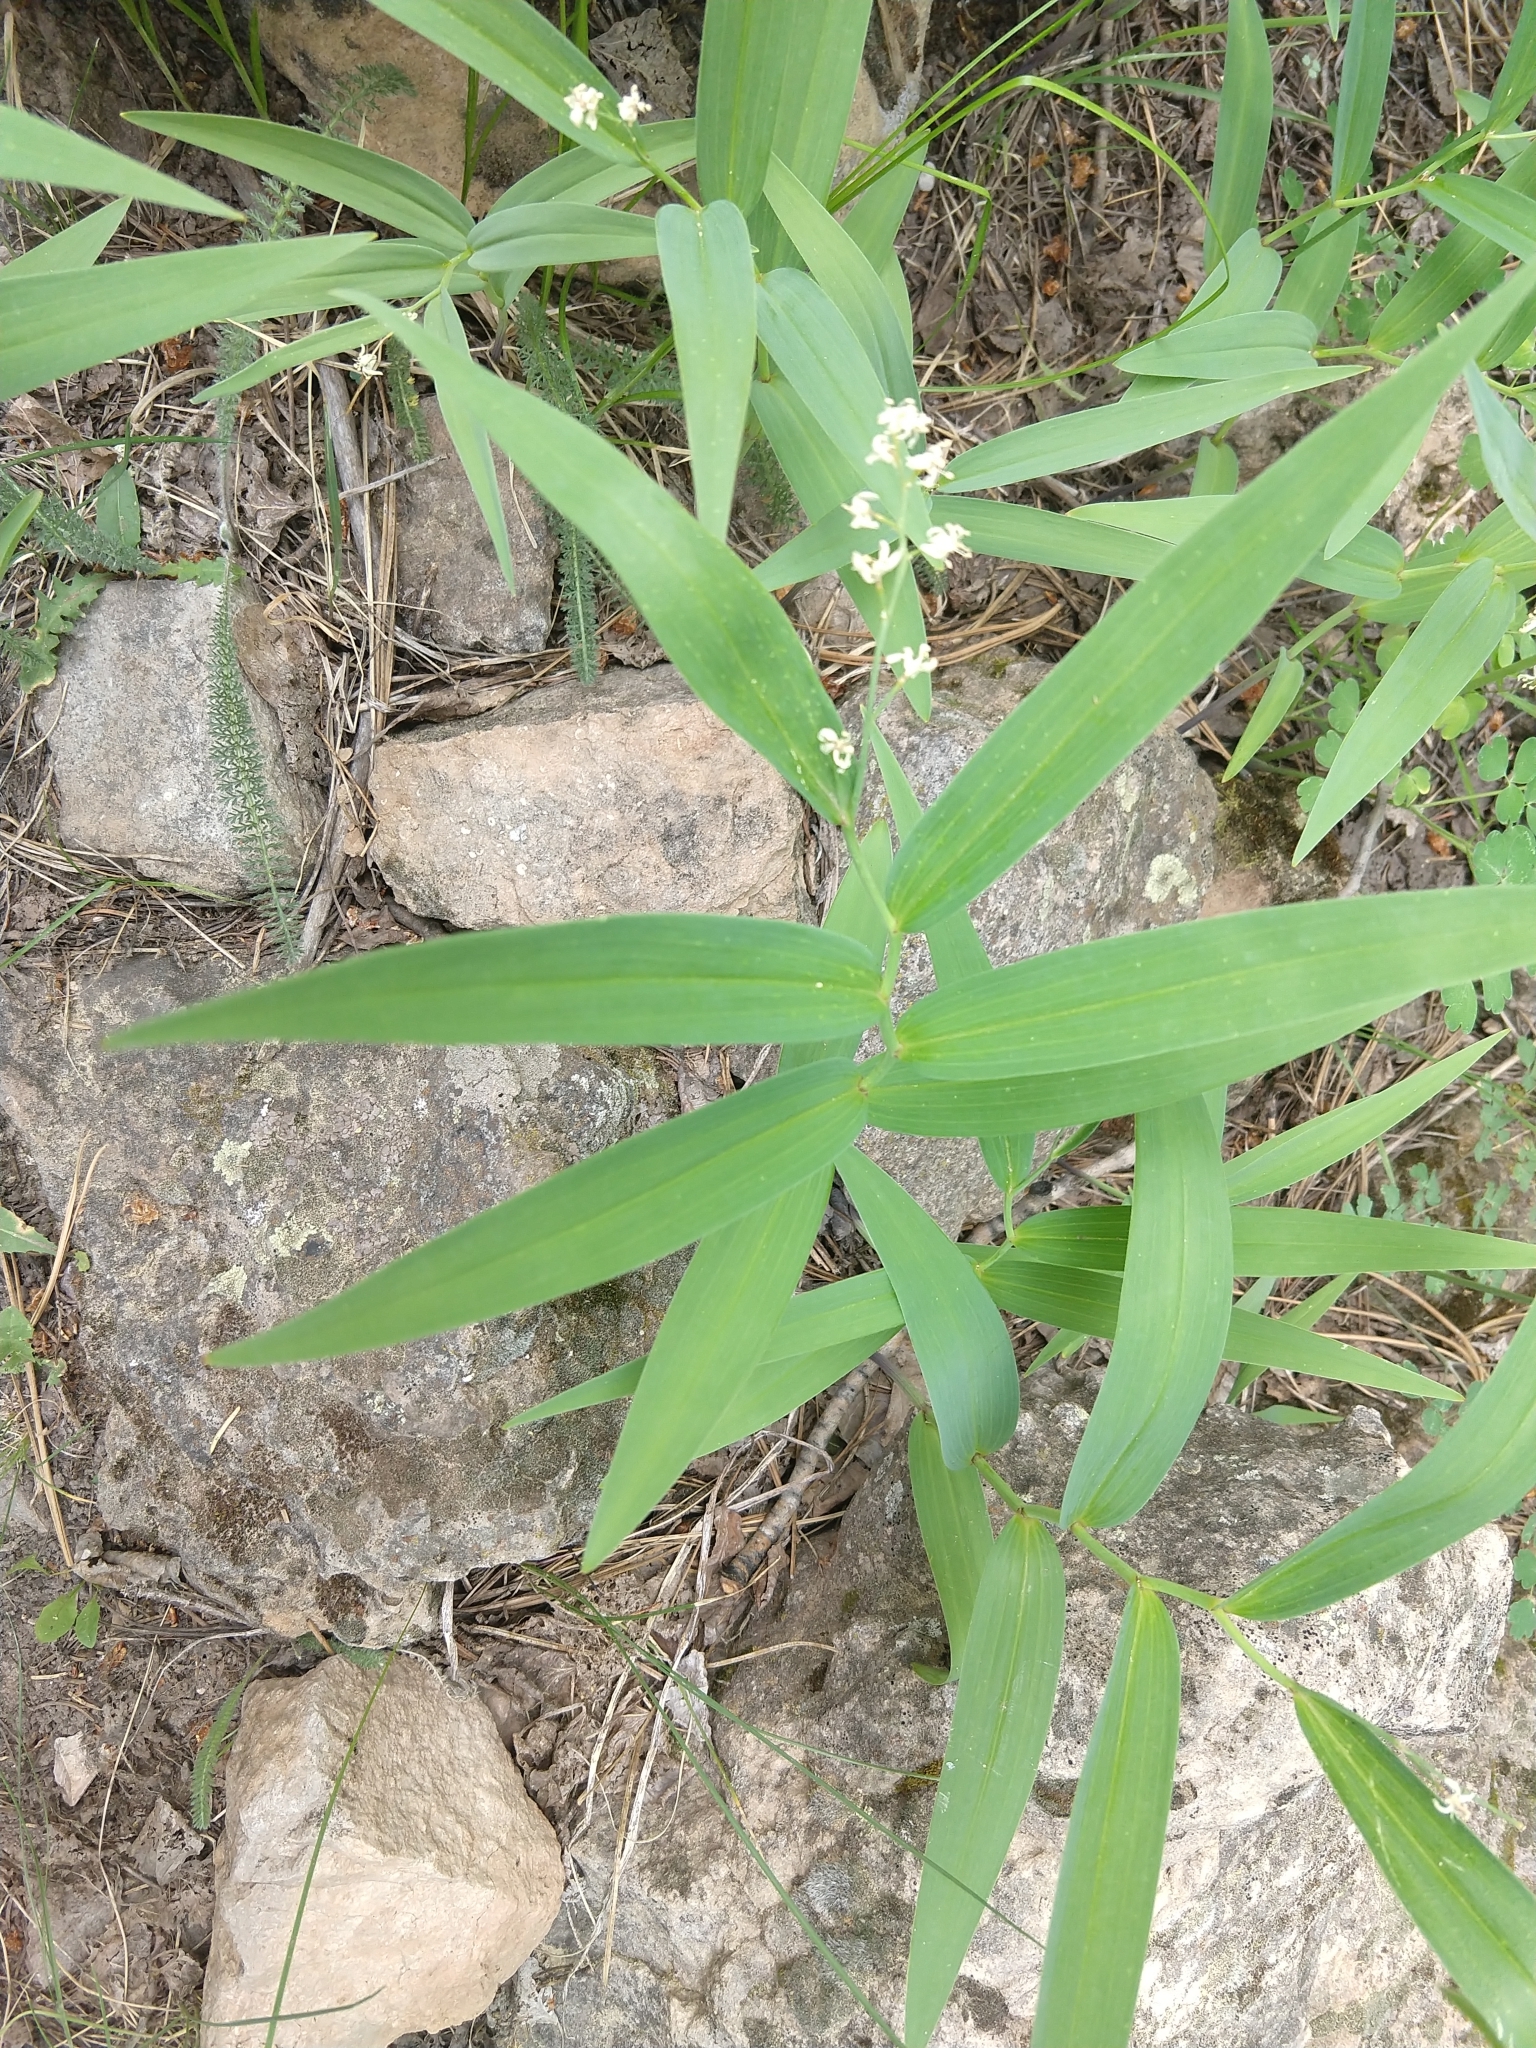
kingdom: Plantae
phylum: Tracheophyta
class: Liliopsida
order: Asparagales
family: Asparagaceae
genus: Maianthemum
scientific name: Maianthemum stellatum
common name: Little false solomon's seal
